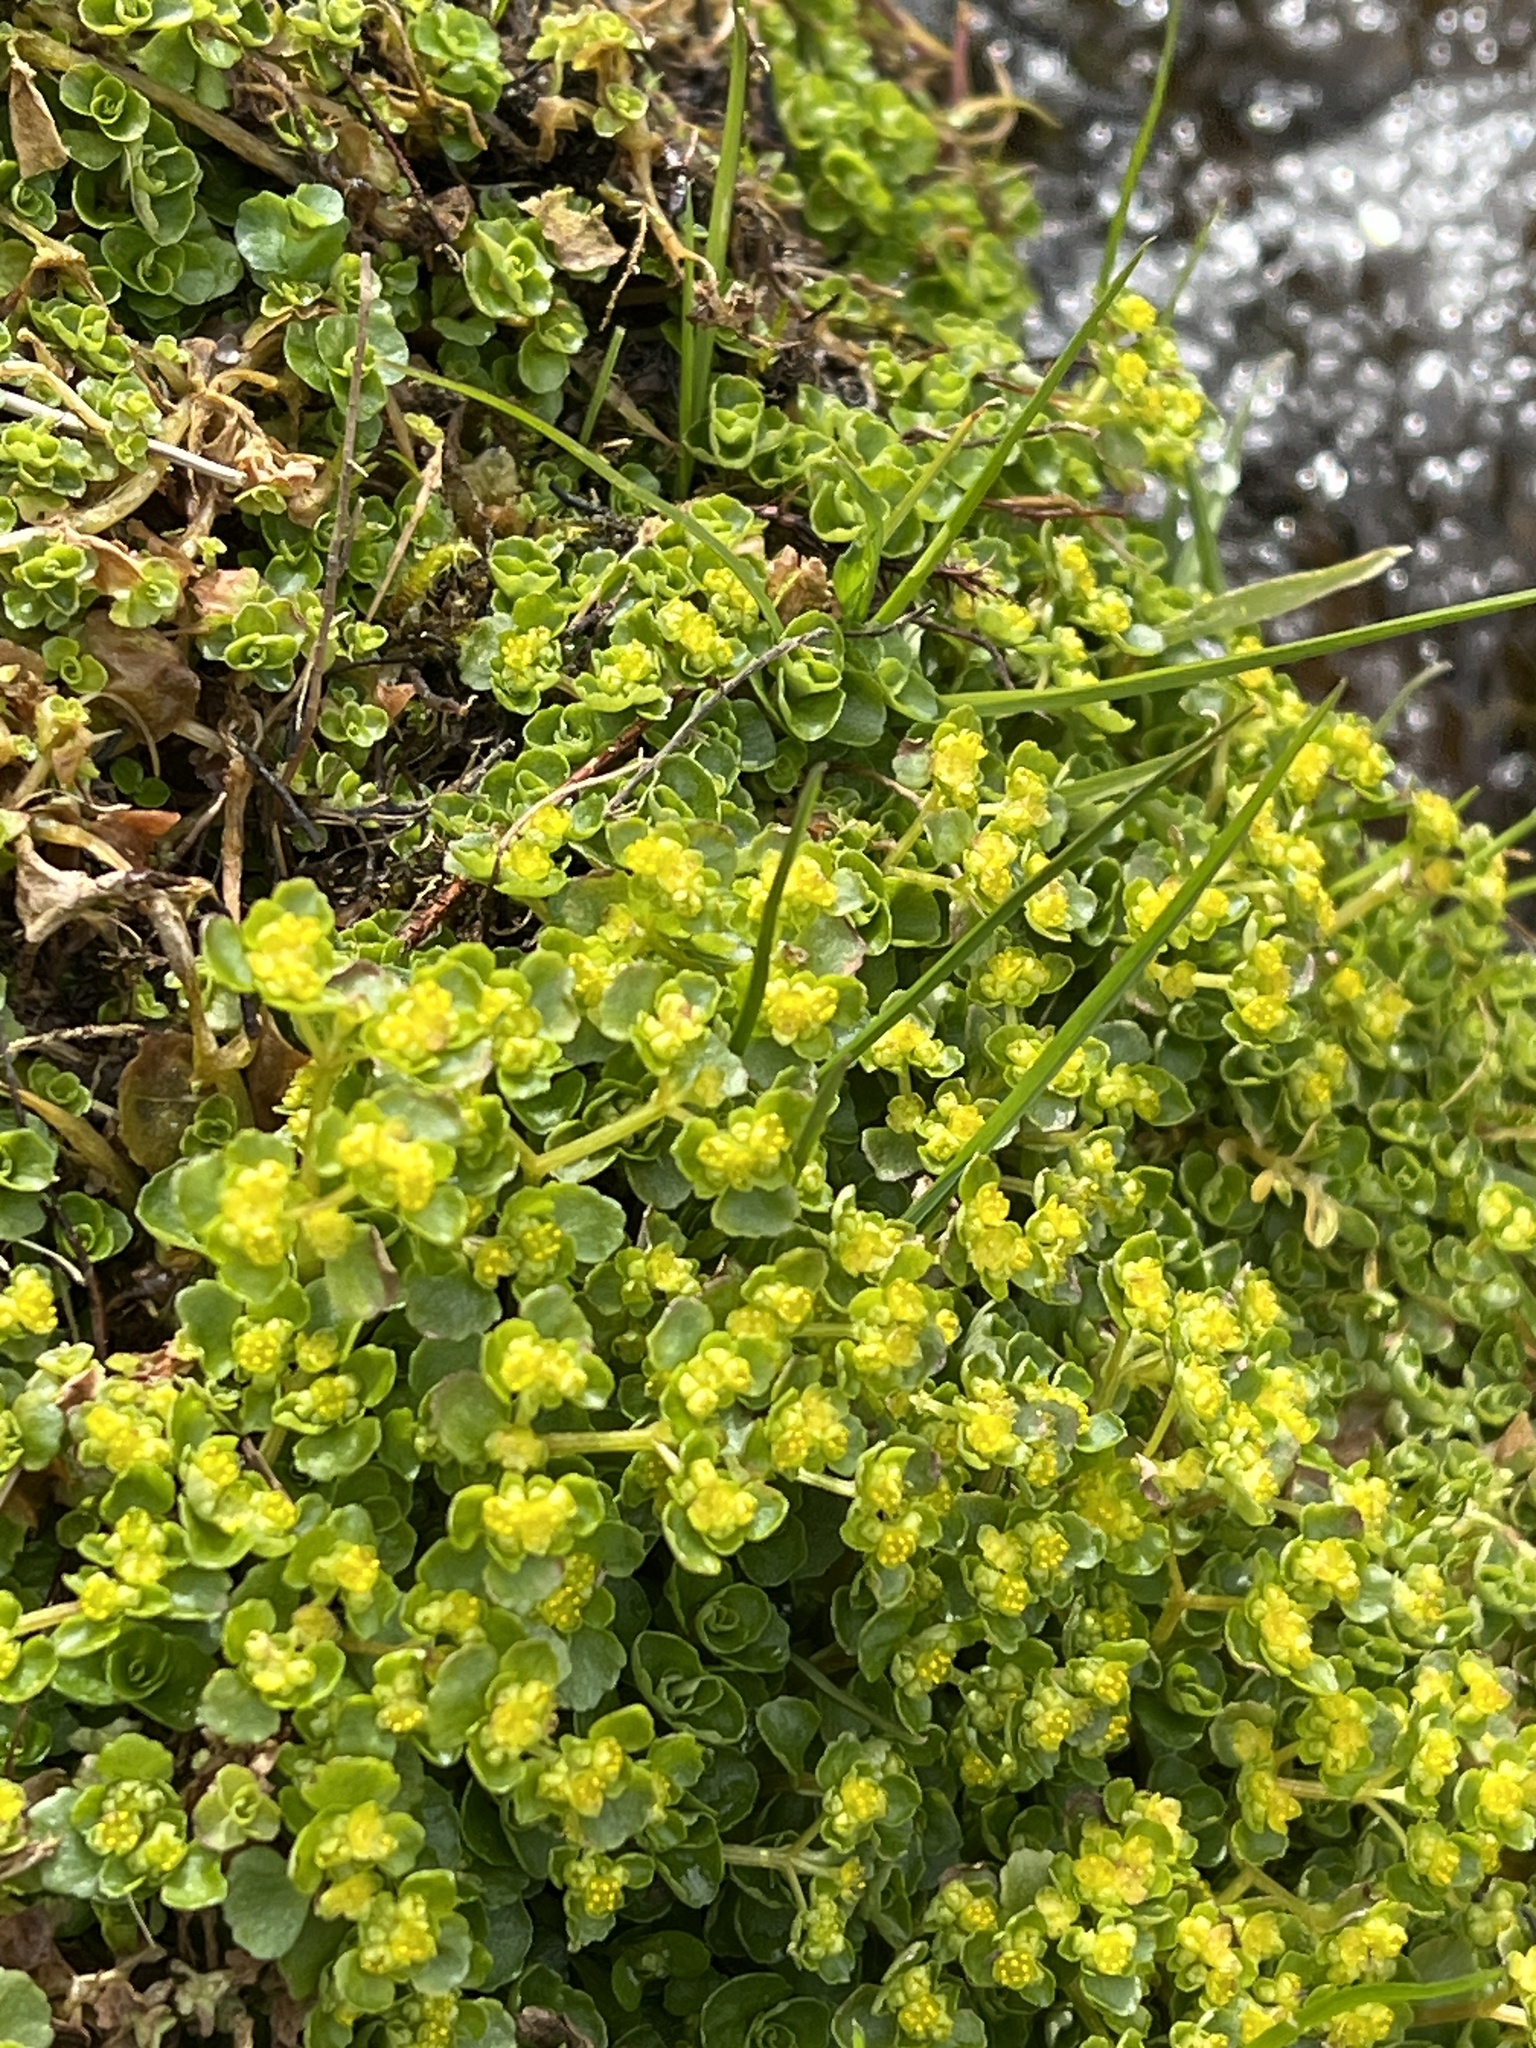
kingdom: Plantae
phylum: Tracheophyta
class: Magnoliopsida
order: Saxifragales
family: Saxifragaceae
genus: Chrysosplenium
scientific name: Chrysosplenium oppositifolium
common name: Opposite-leaved golden-saxifrage
